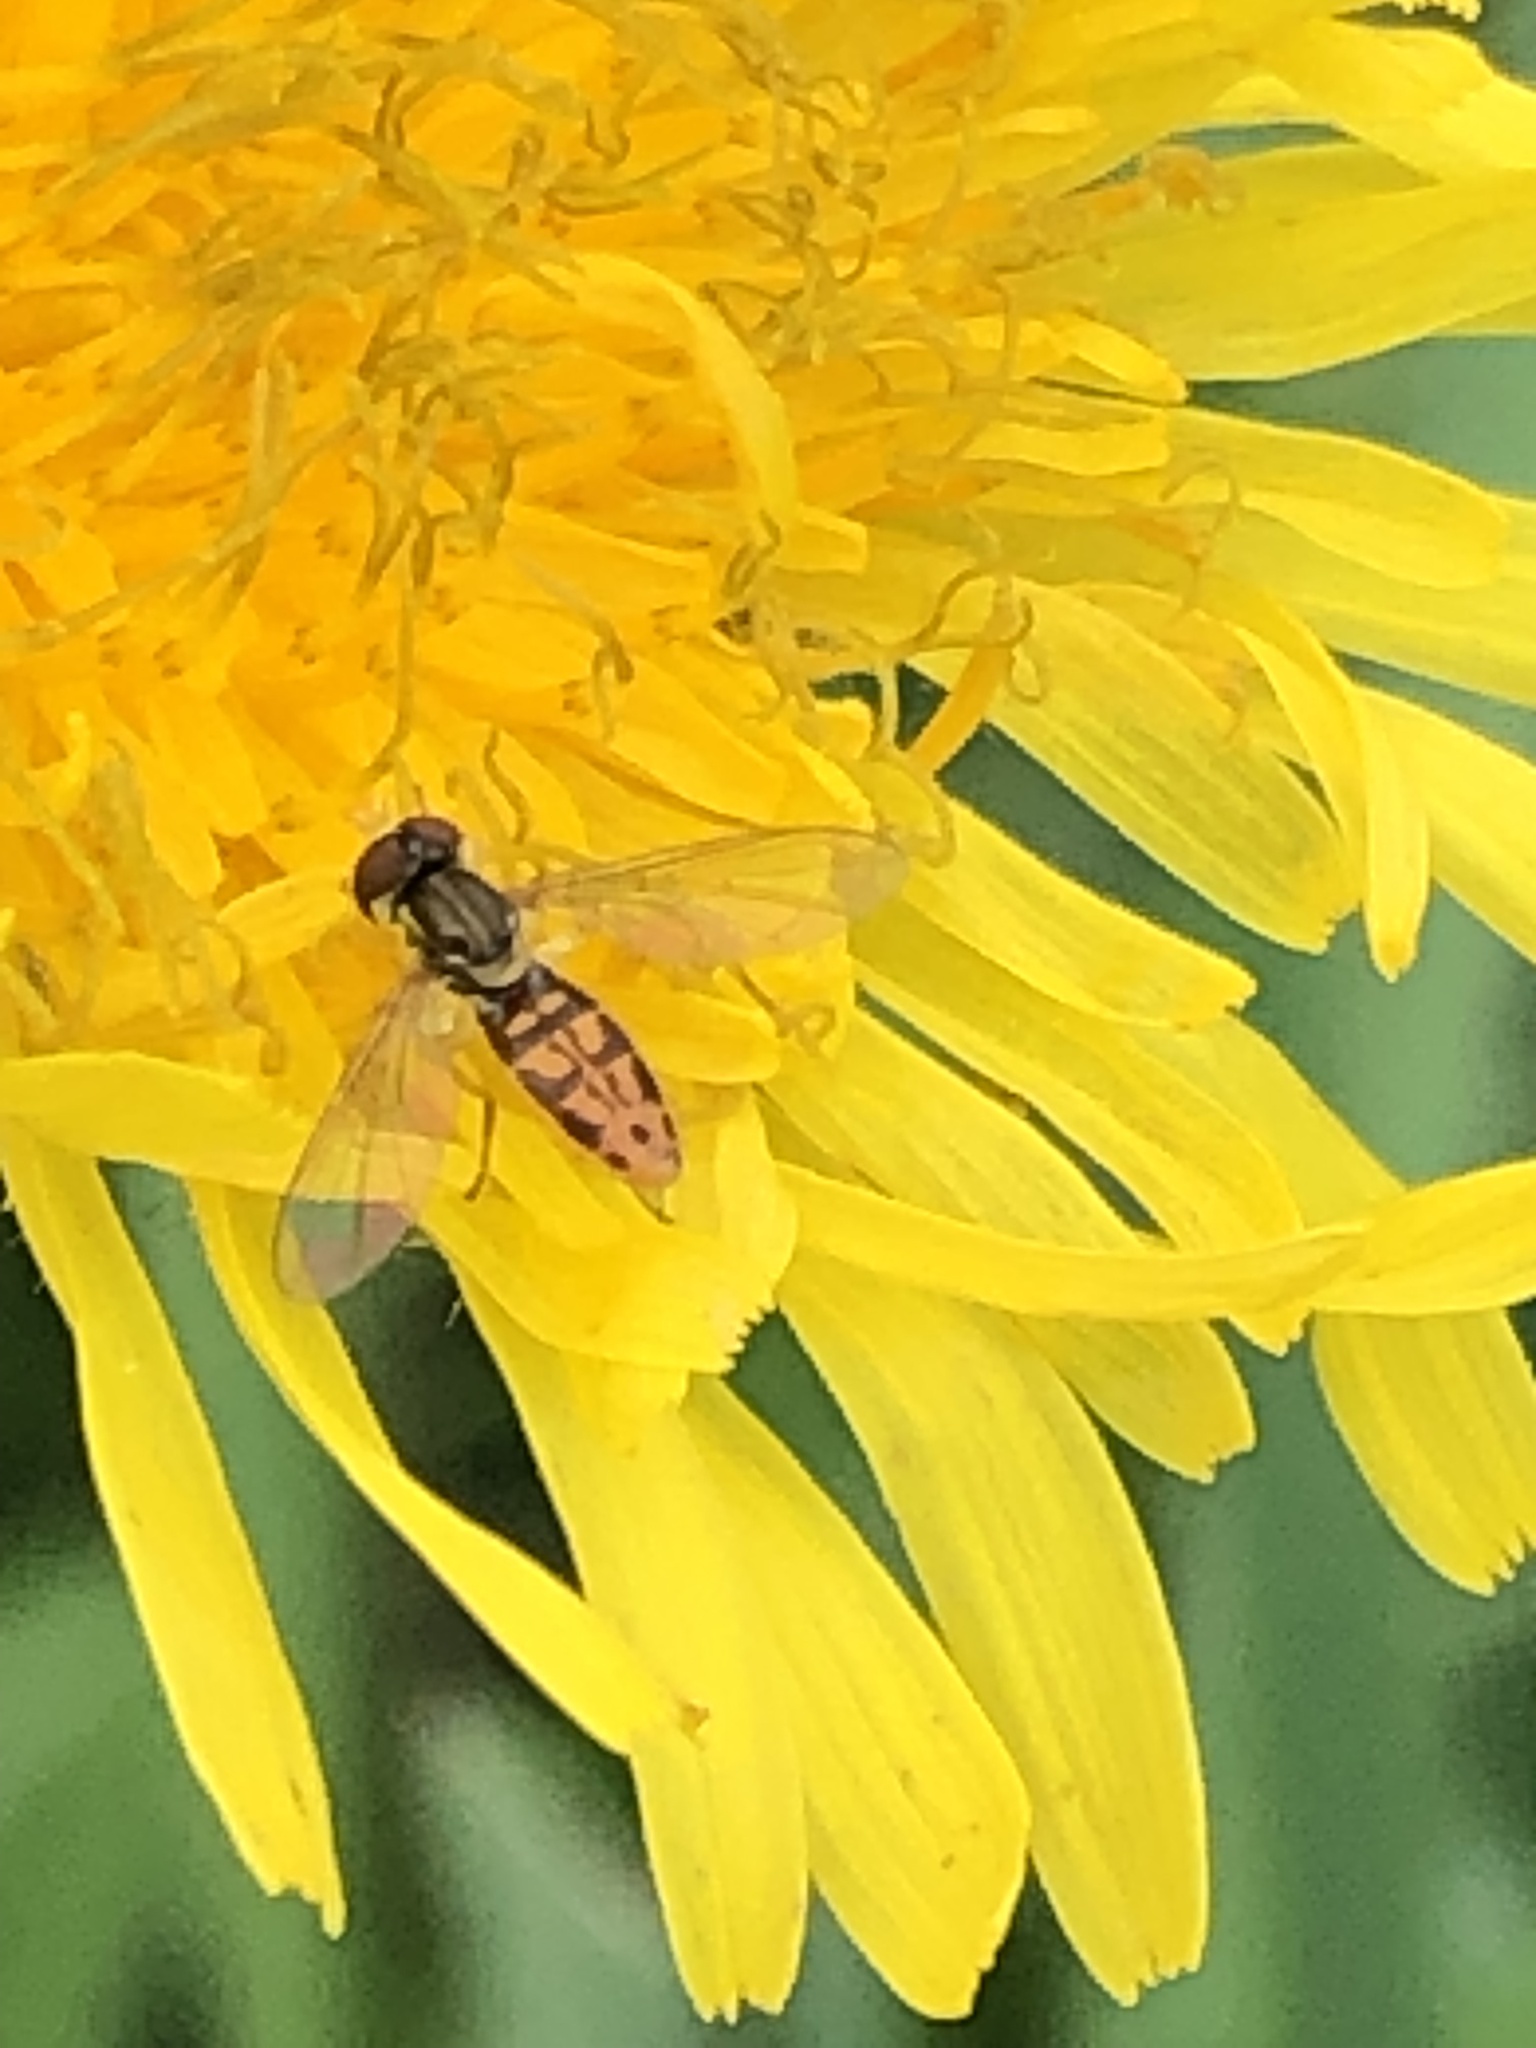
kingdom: Animalia
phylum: Arthropoda
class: Insecta
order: Diptera
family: Syrphidae
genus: Toxomerus
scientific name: Toxomerus marginatus
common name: Syrphid fly
